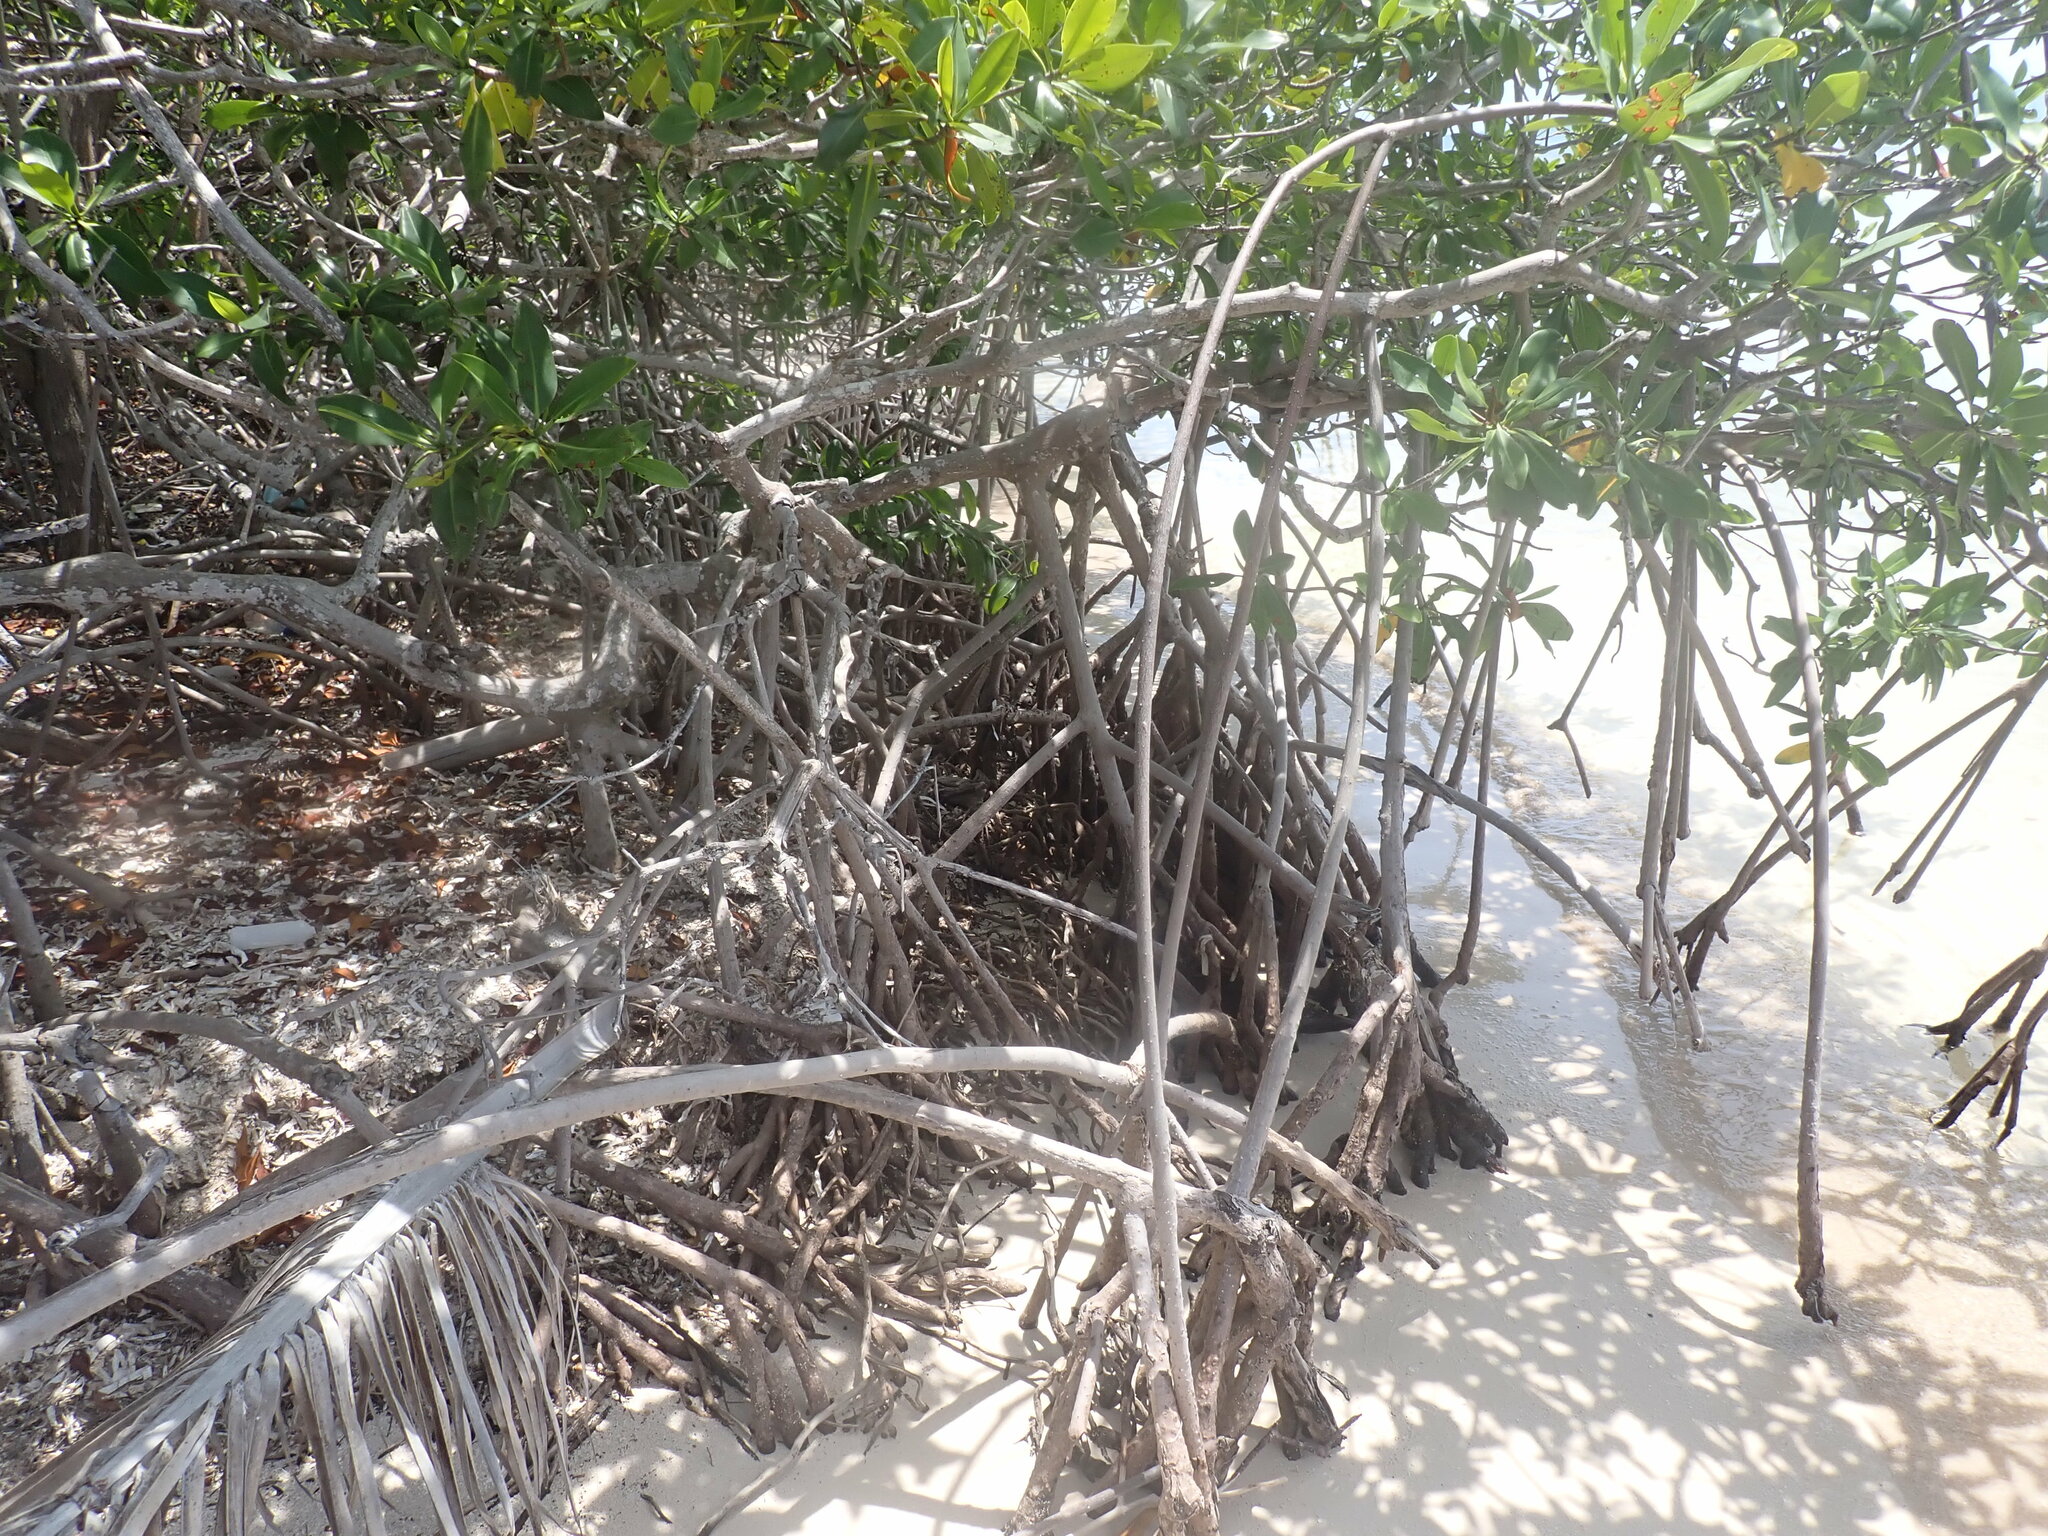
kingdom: Plantae
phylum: Tracheophyta
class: Magnoliopsida
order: Malpighiales
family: Rhizophoraceae
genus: Rhizophora
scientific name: Rhizophora mangle
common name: Red mangrove
